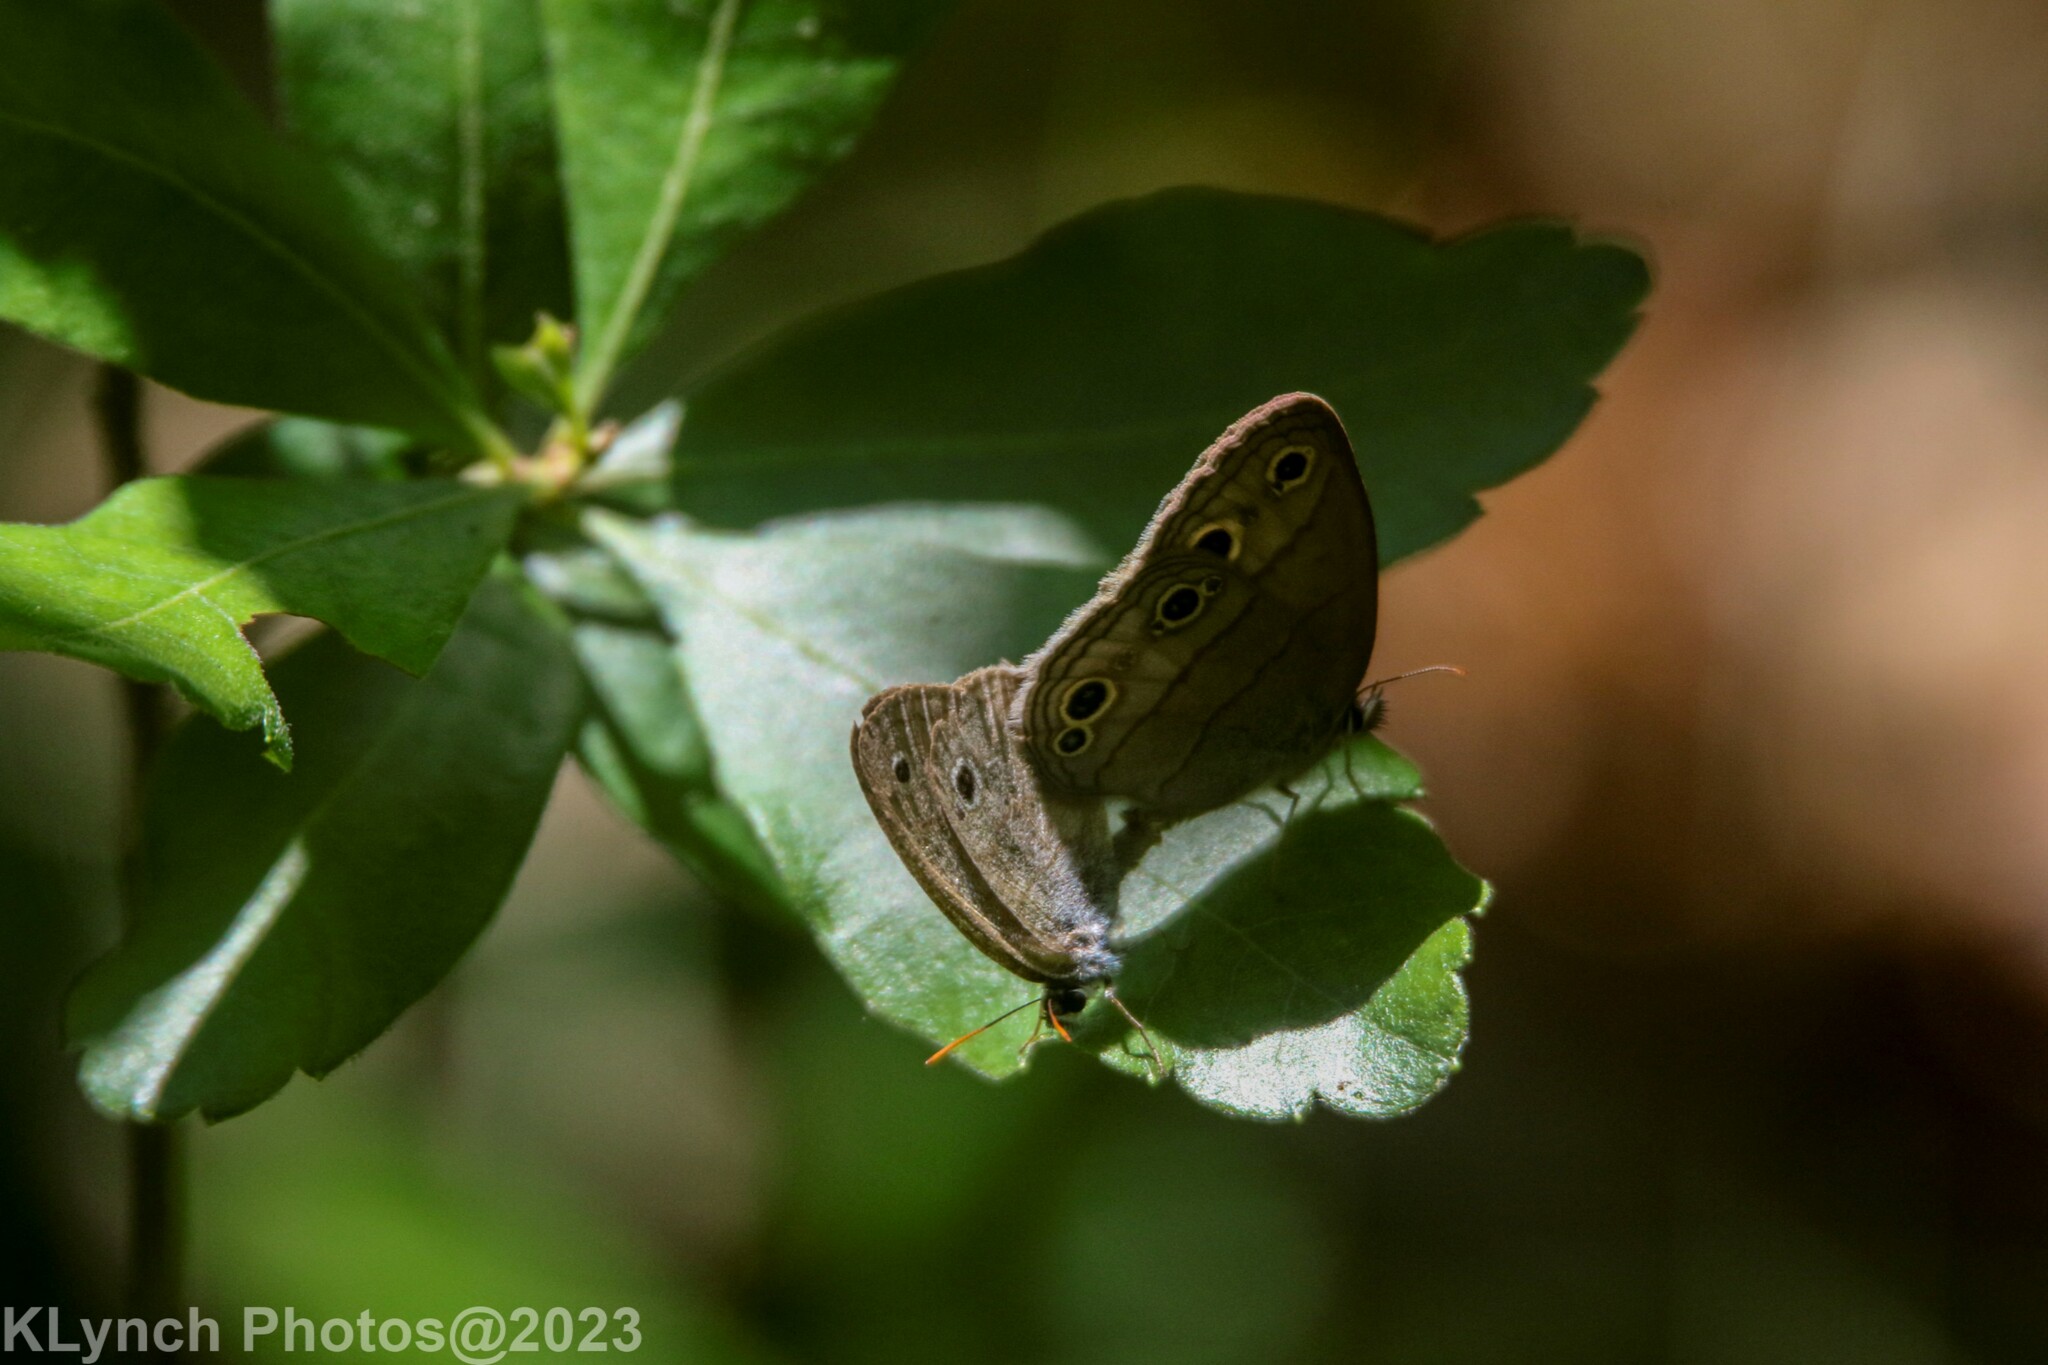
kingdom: Animalia
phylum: Arthropoda
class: Insecta
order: Lepidoptera
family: Nymphalidae
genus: Euptychia
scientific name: Euptychia cymela
